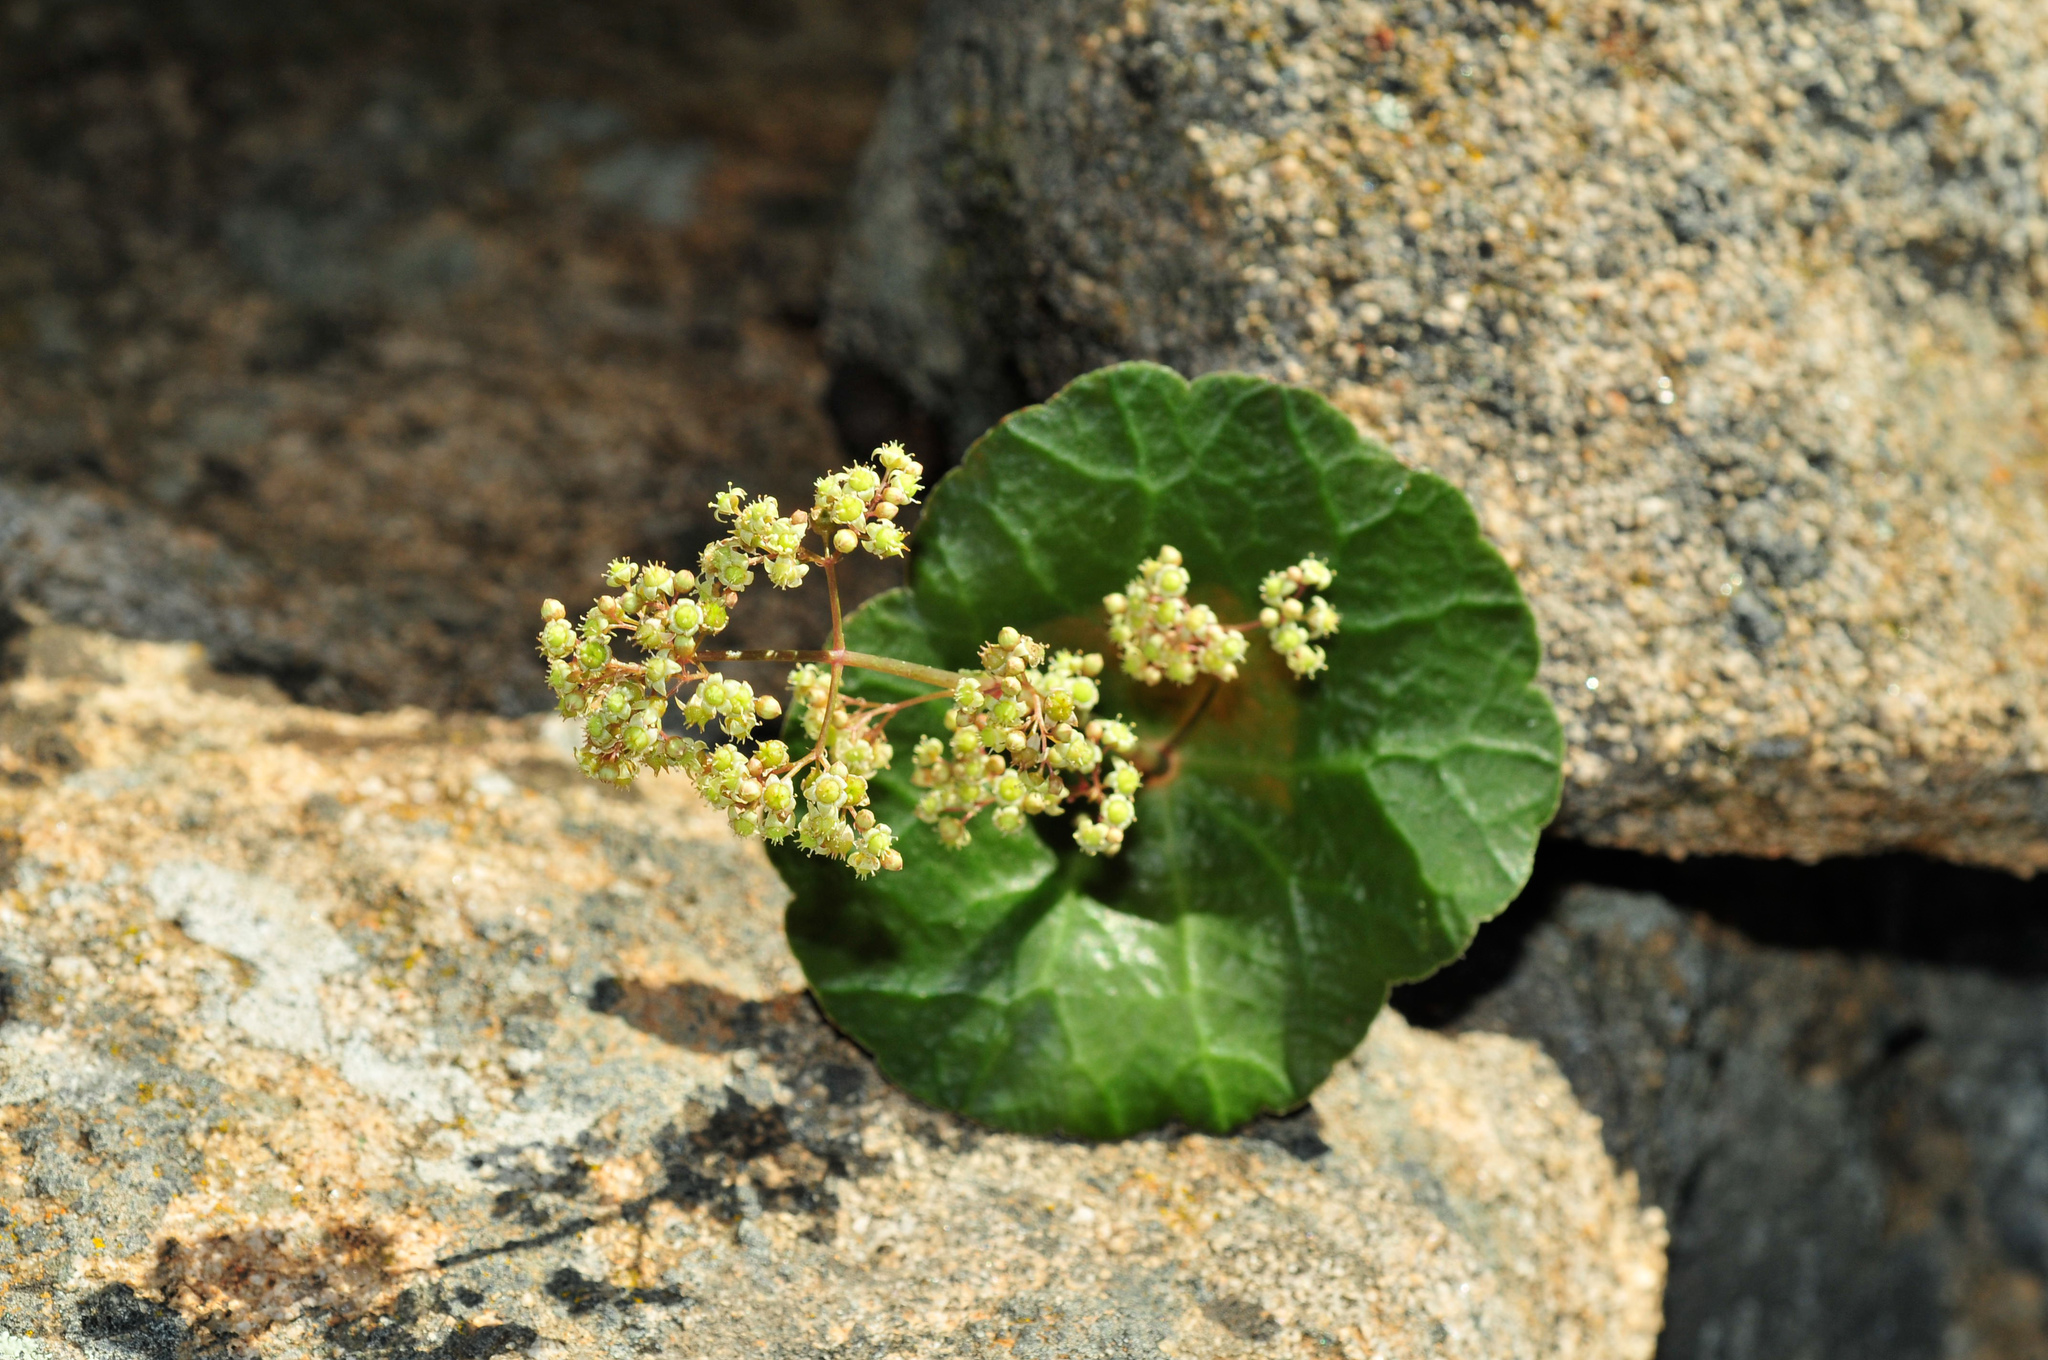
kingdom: Plantae
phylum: Tracheophyta
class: Magnoliopsida
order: Saxifragales
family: Crassulaceae
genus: Crassula
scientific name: Crassula umbella
